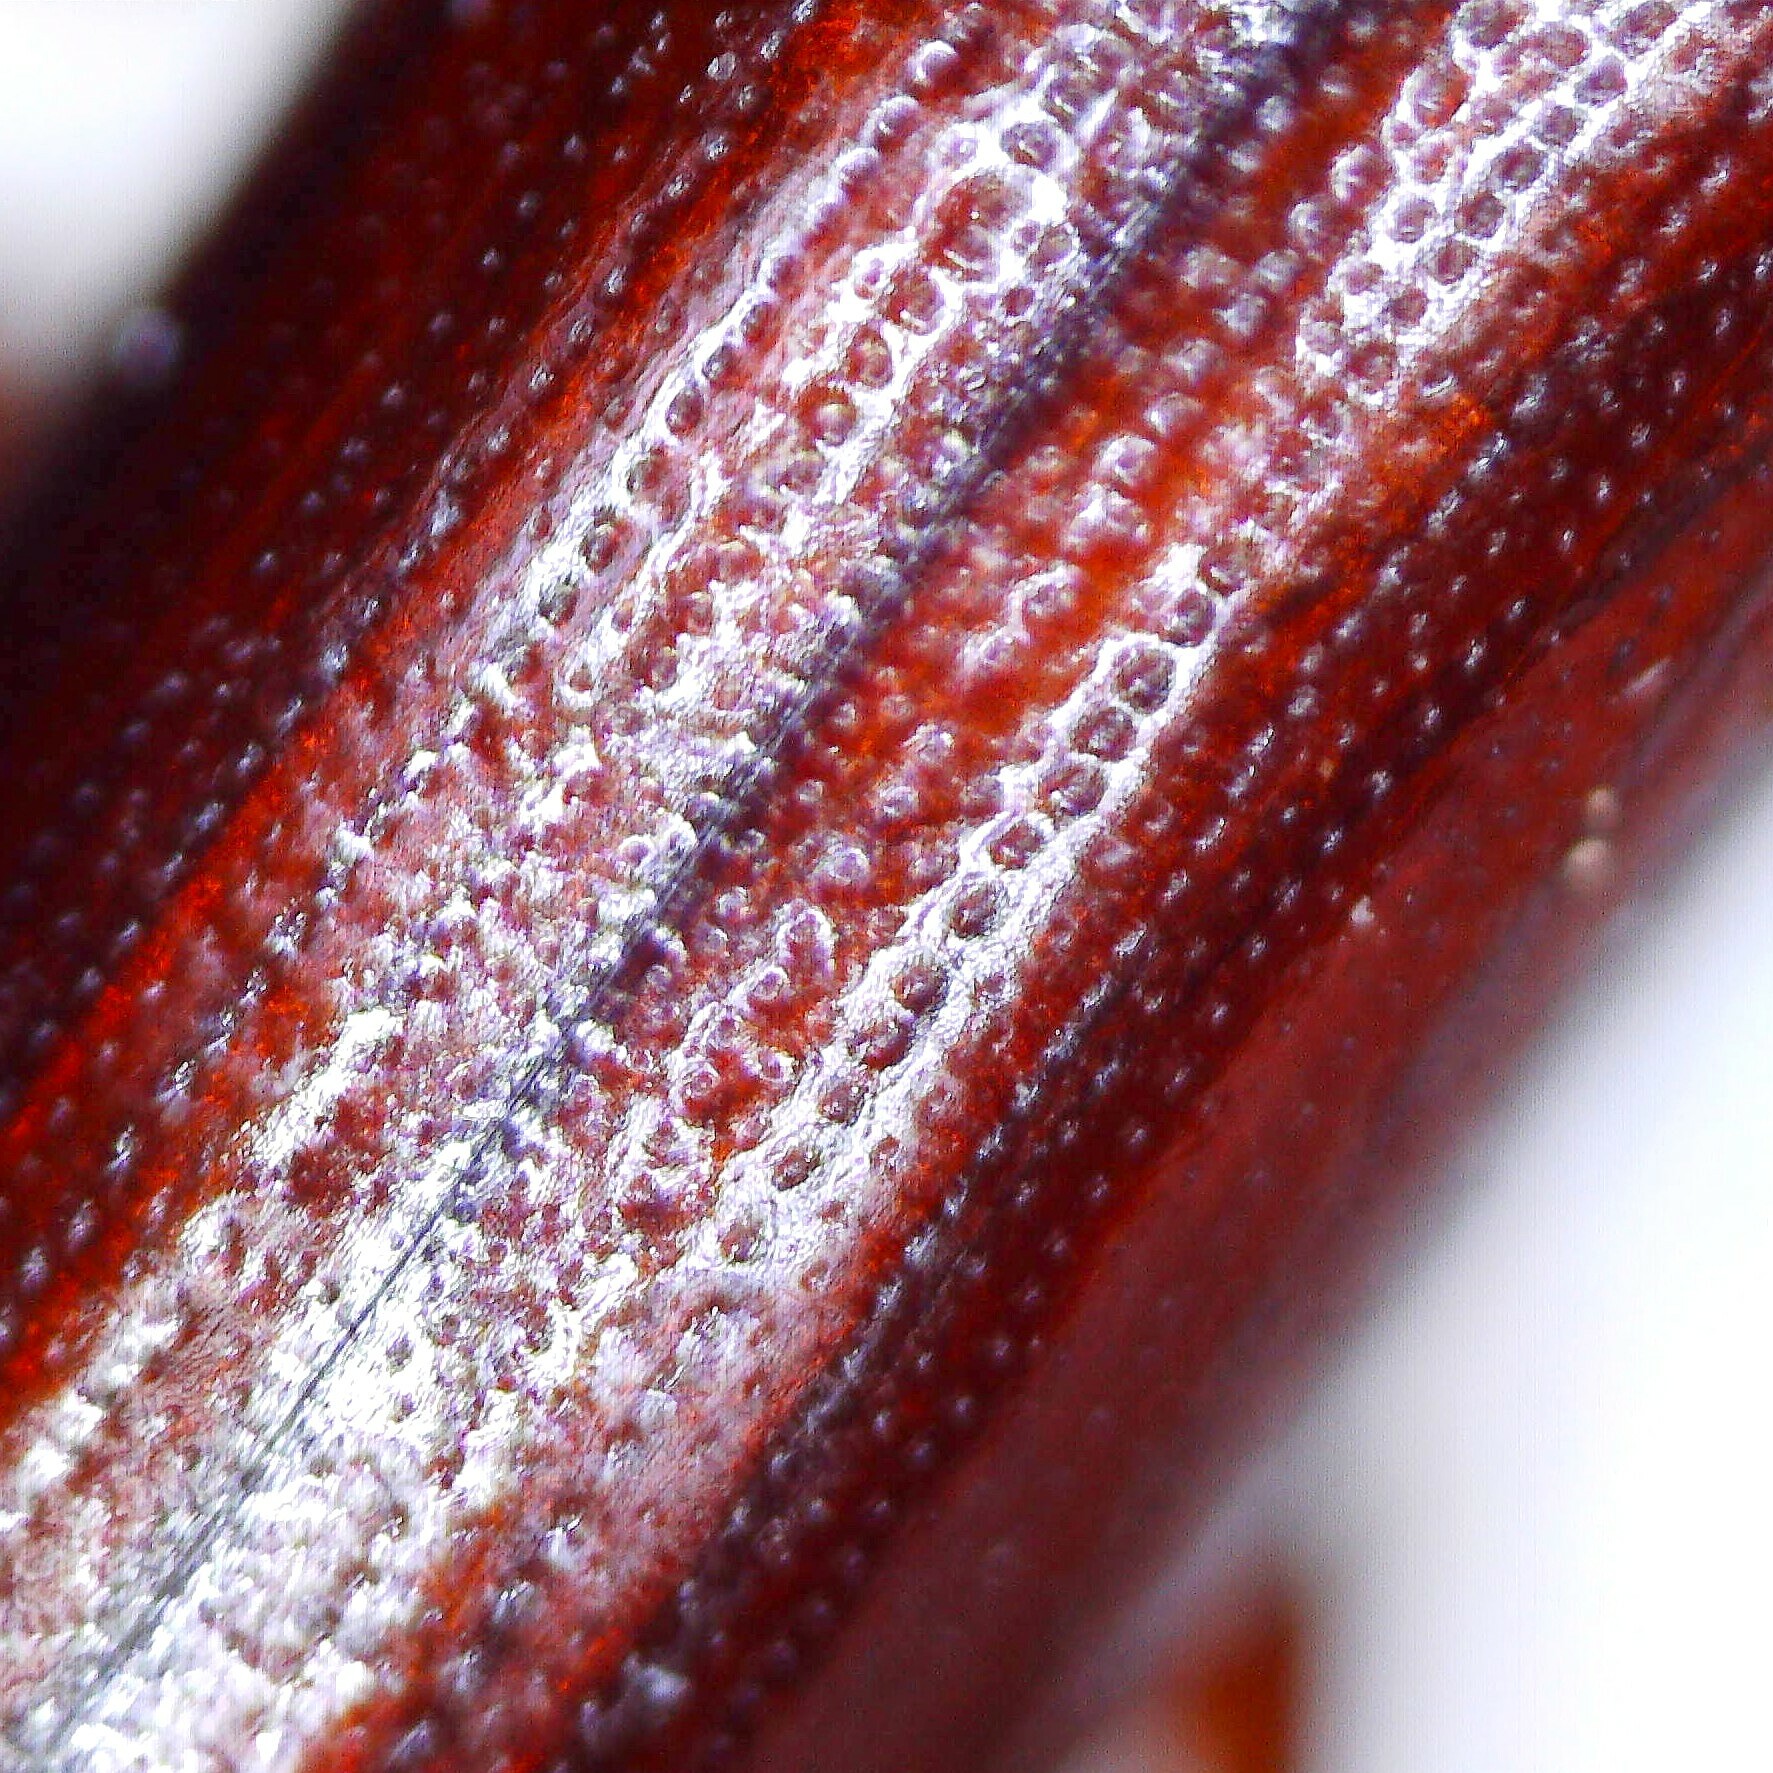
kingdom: Animalia
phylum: Arthropoda
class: Insecta
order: Coleoptera
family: Tenebrionidae
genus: Corticeus
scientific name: Corticeus unicolor
